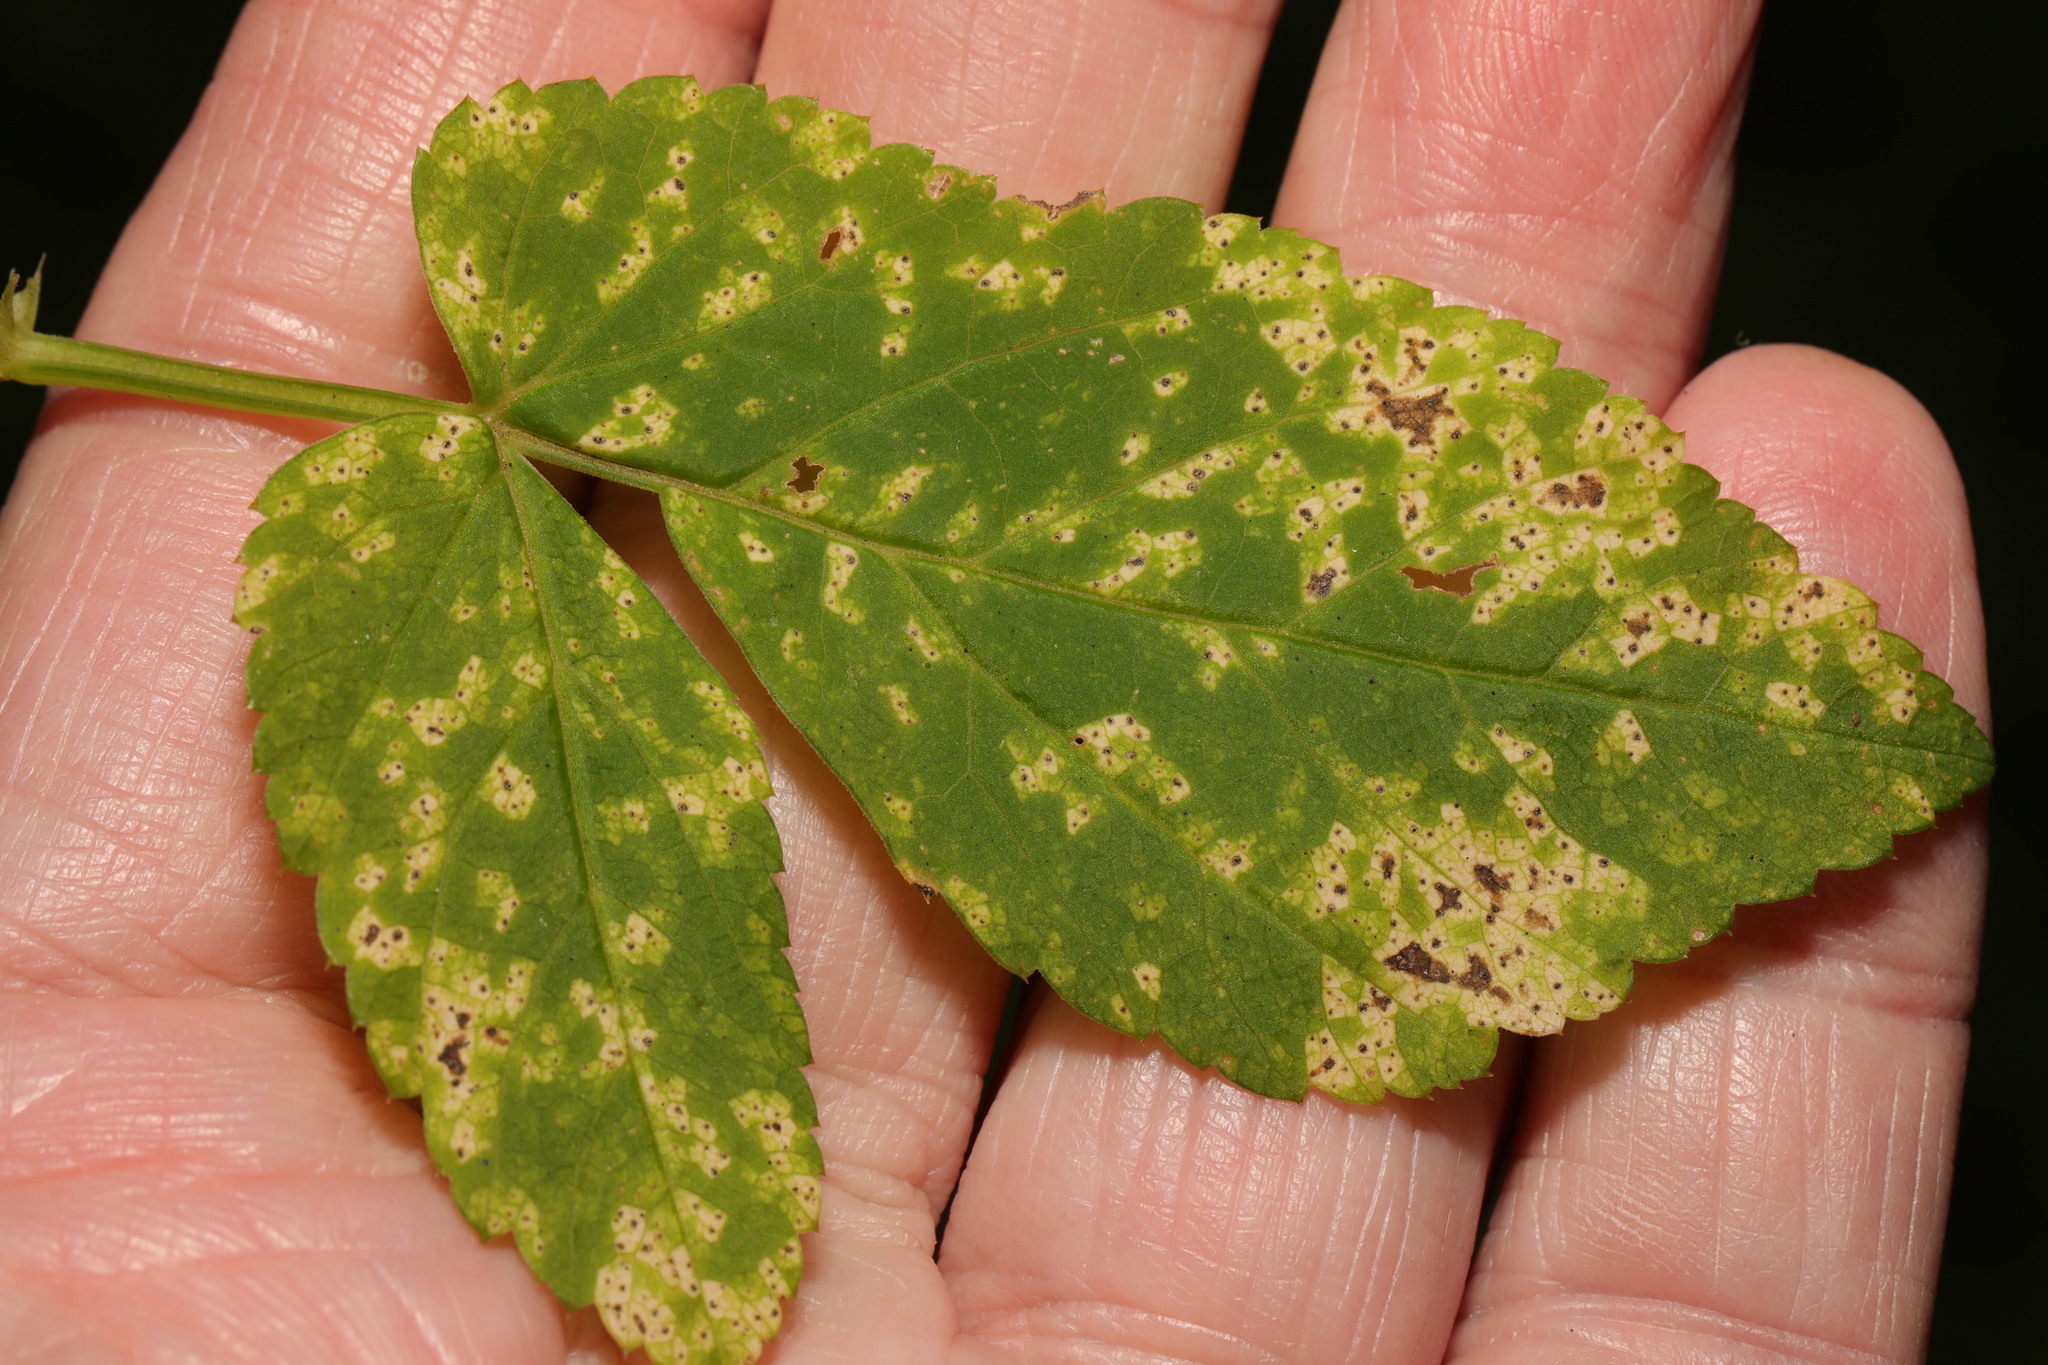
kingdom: Fungi
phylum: Ascomycota
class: Dothideomycetes
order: Mycosphaerellales
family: Mycosphaerellaceae
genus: Mycosphaerella
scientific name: Mycosphaerella podagrariae
